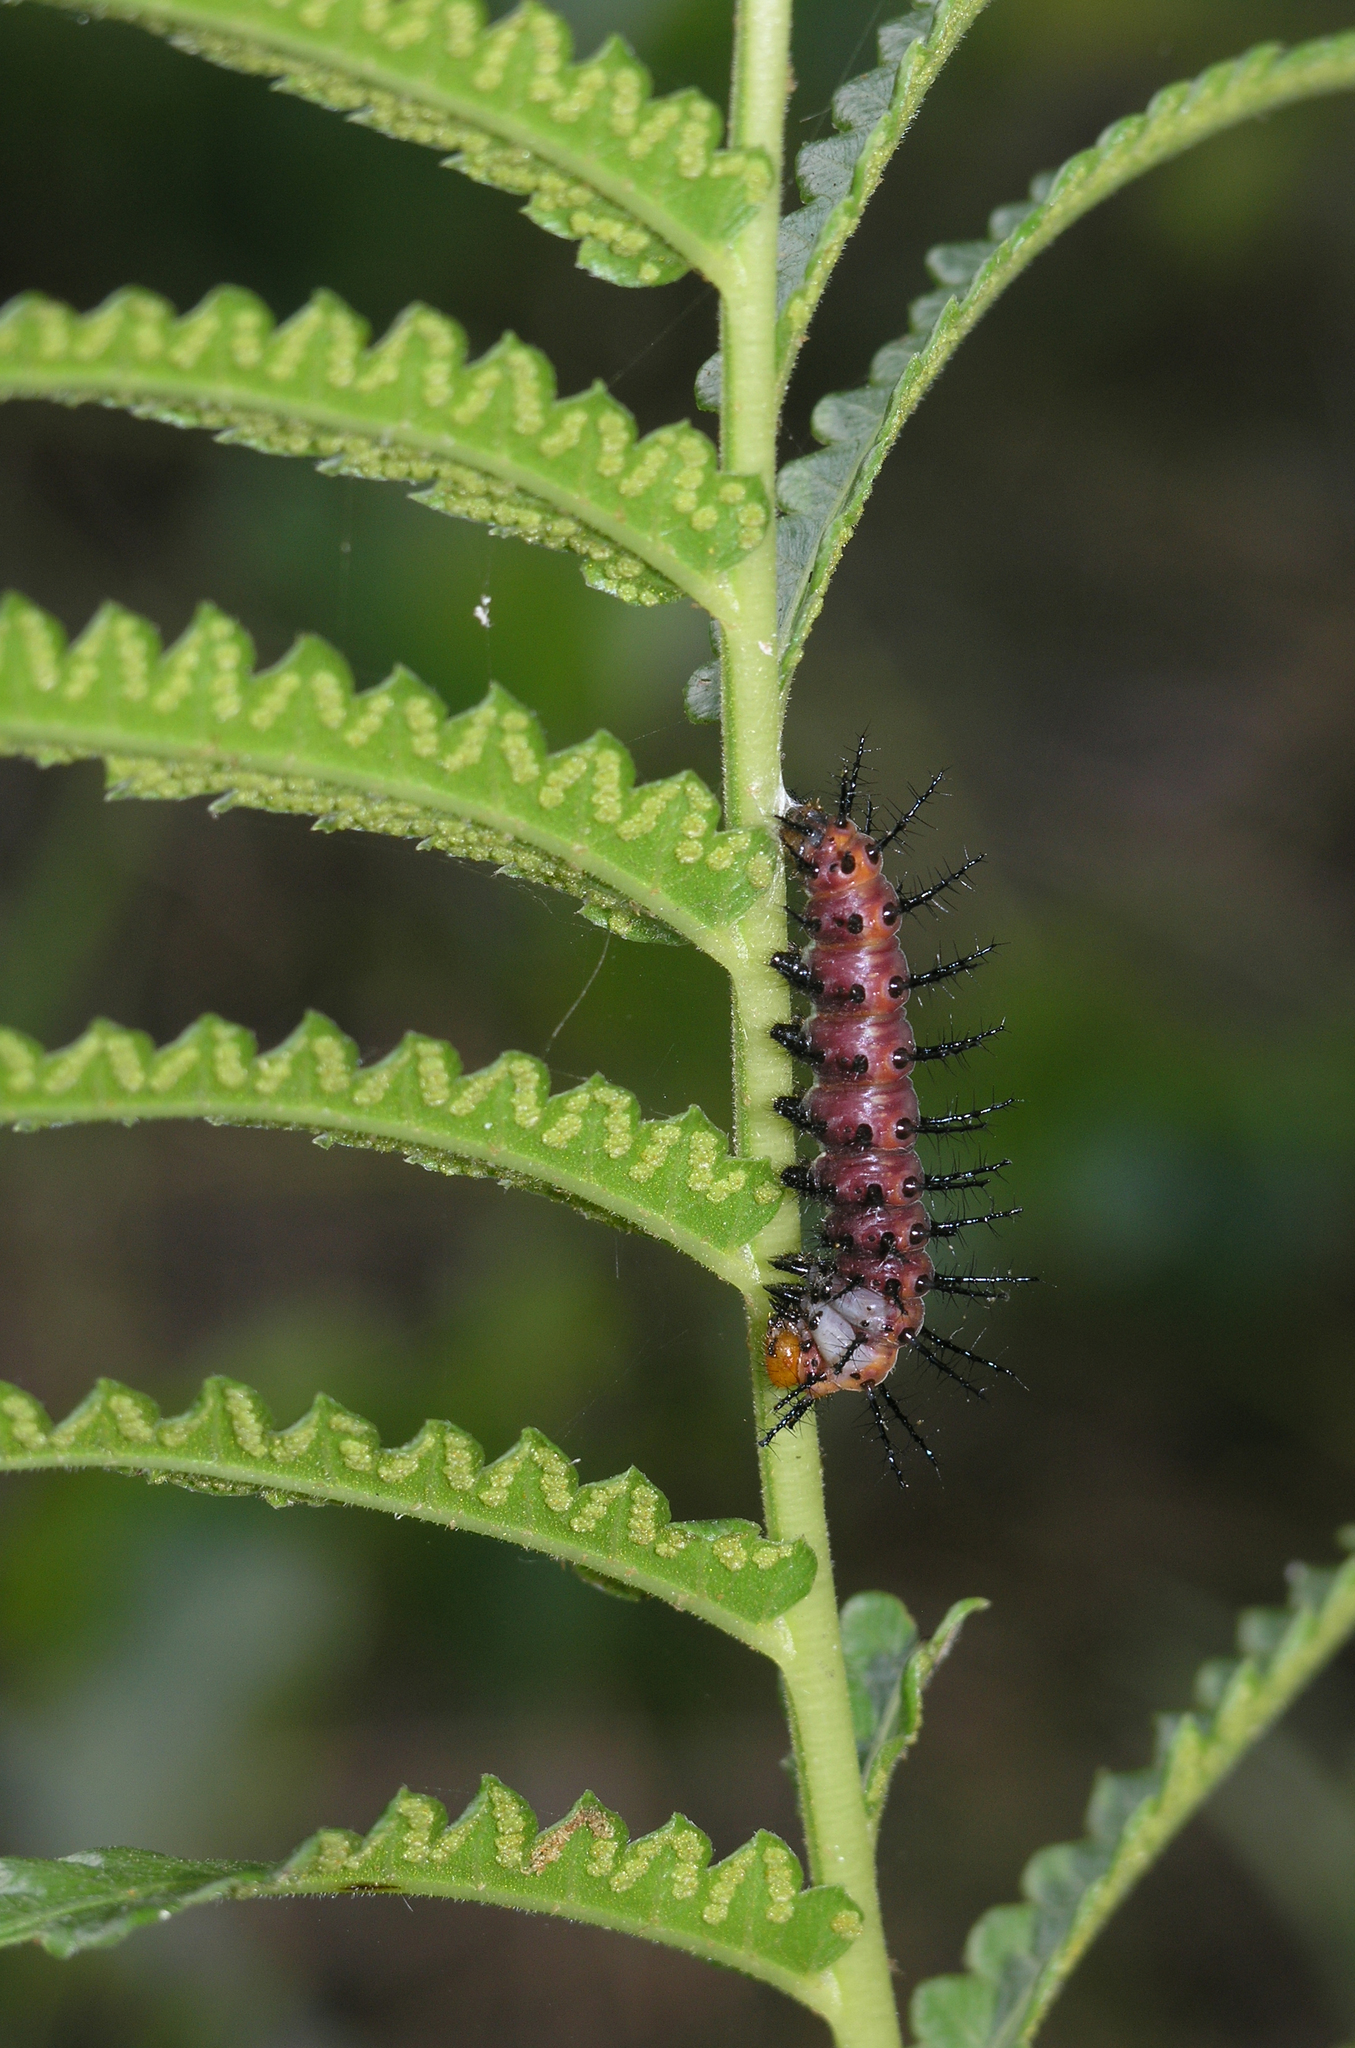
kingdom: Animalia
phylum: Arthropoda
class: Insecta
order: Lepidoptera
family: Nymphalidae
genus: Acraea
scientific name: Acraea terpsicore
